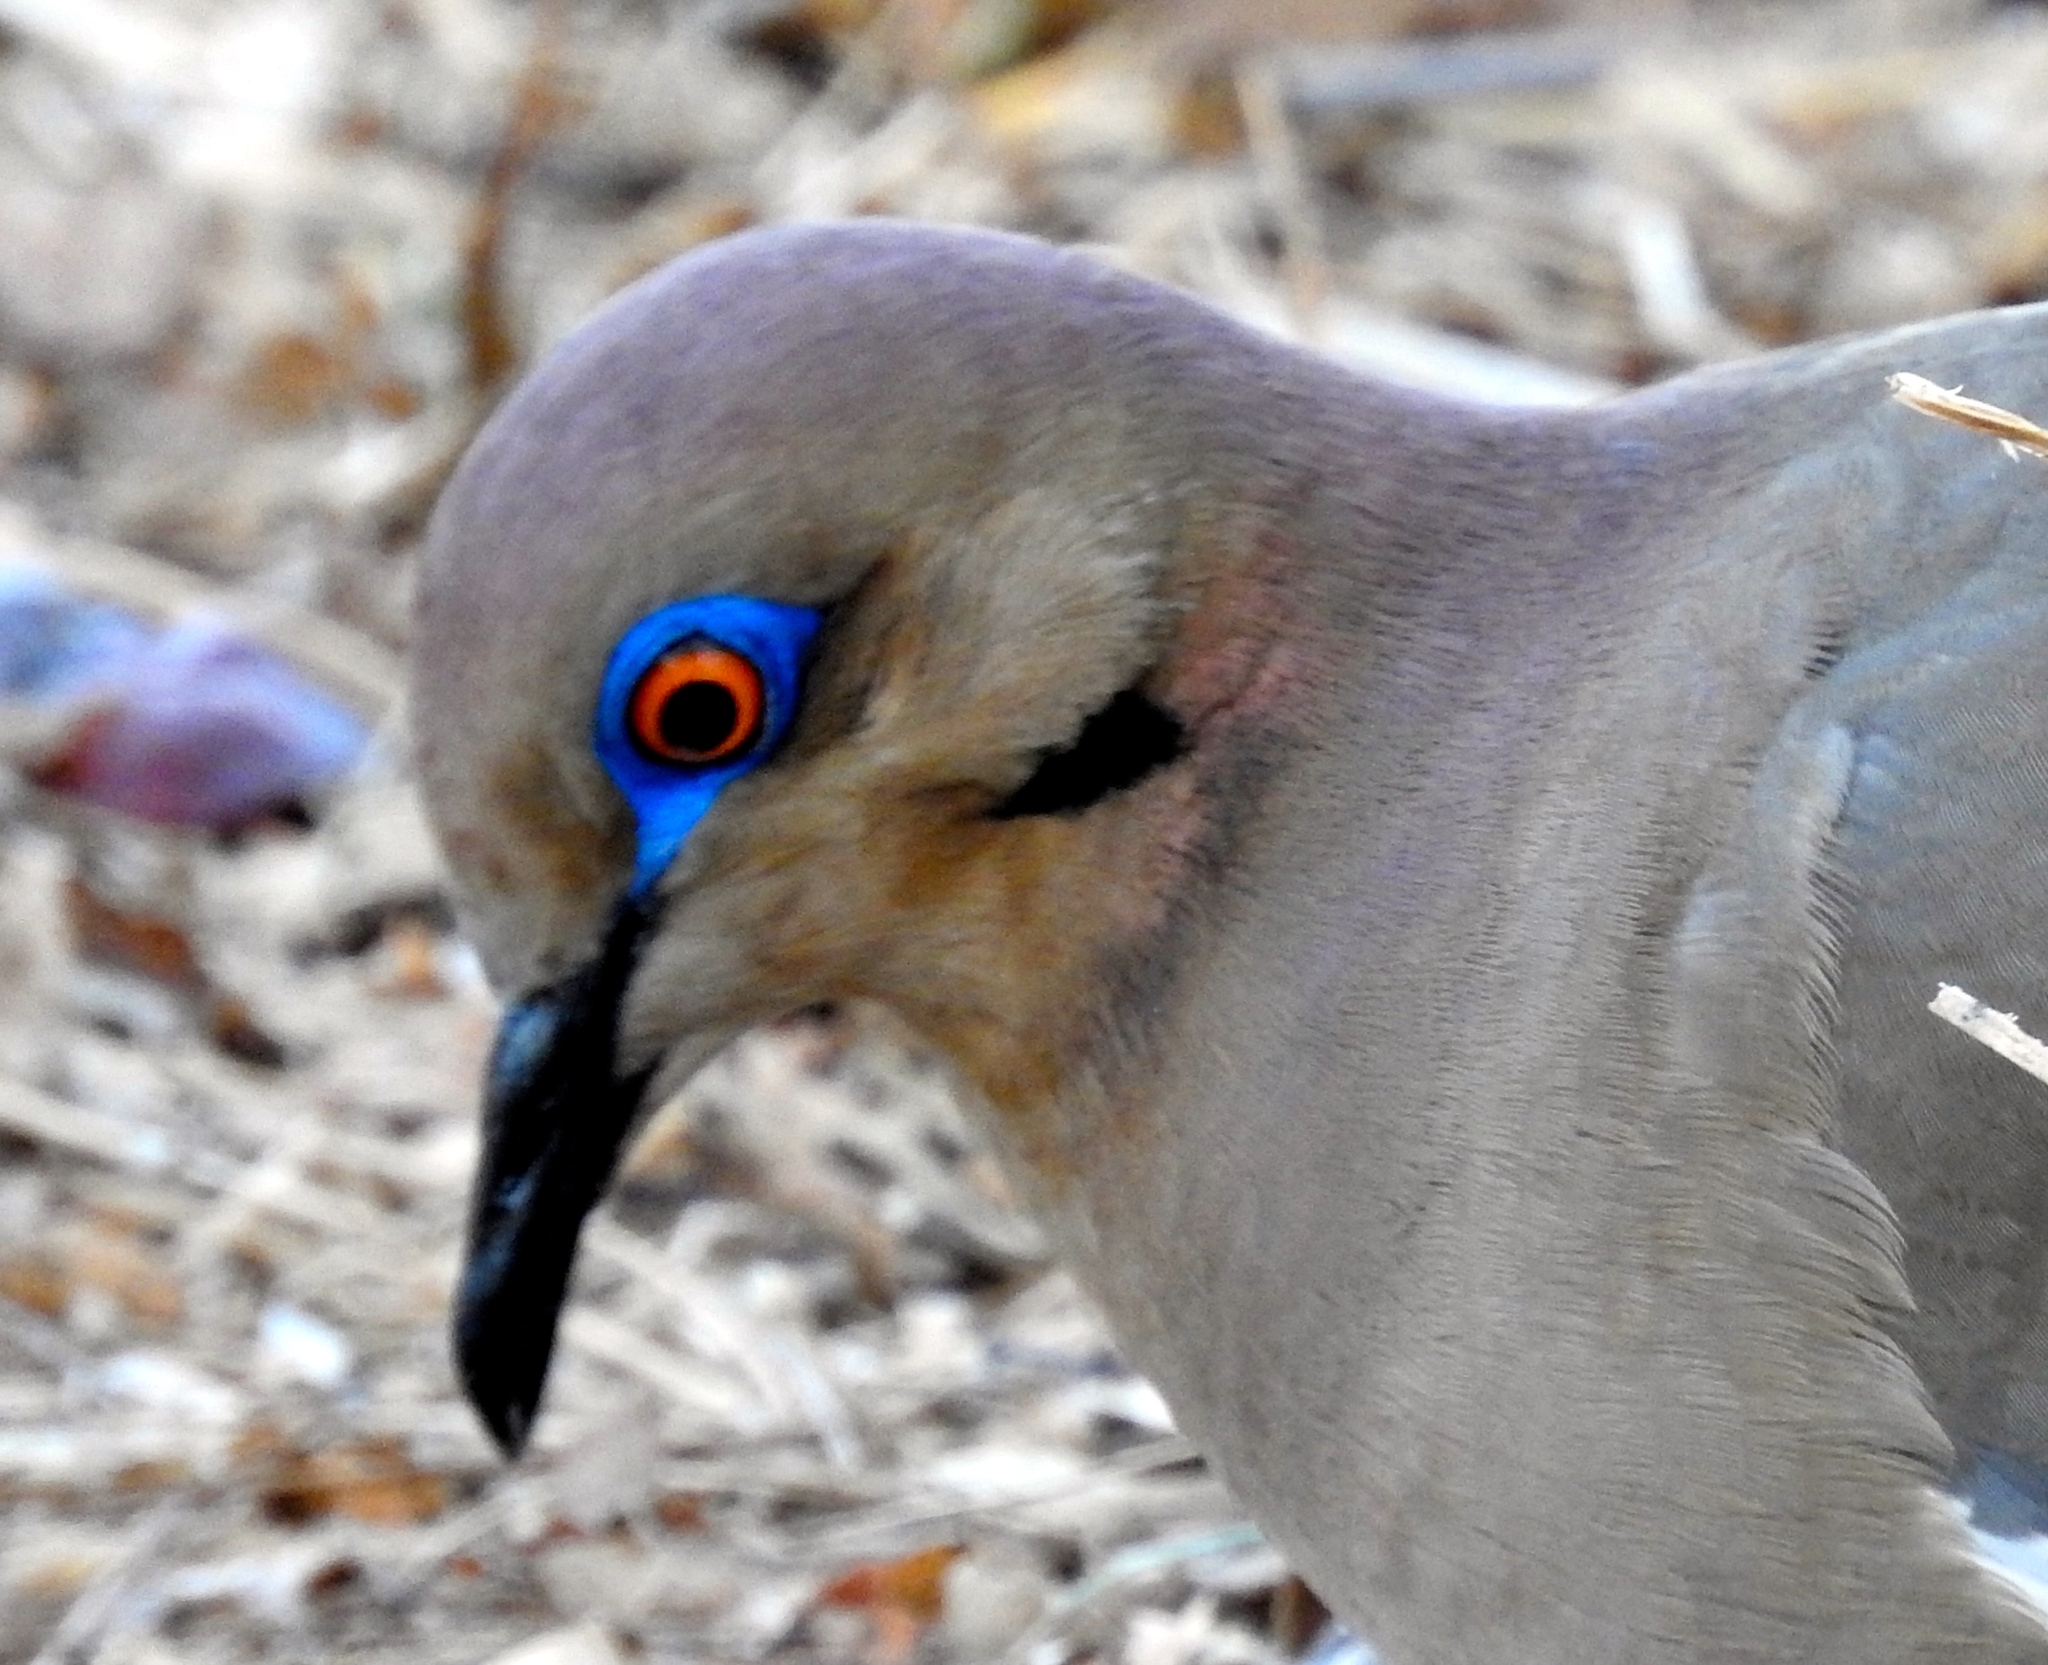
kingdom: Animalia
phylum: Chordata
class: Aves
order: Columbiformes
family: Columbidae
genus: Zenaida
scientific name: Zenaida asiatica
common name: White-winged dove
